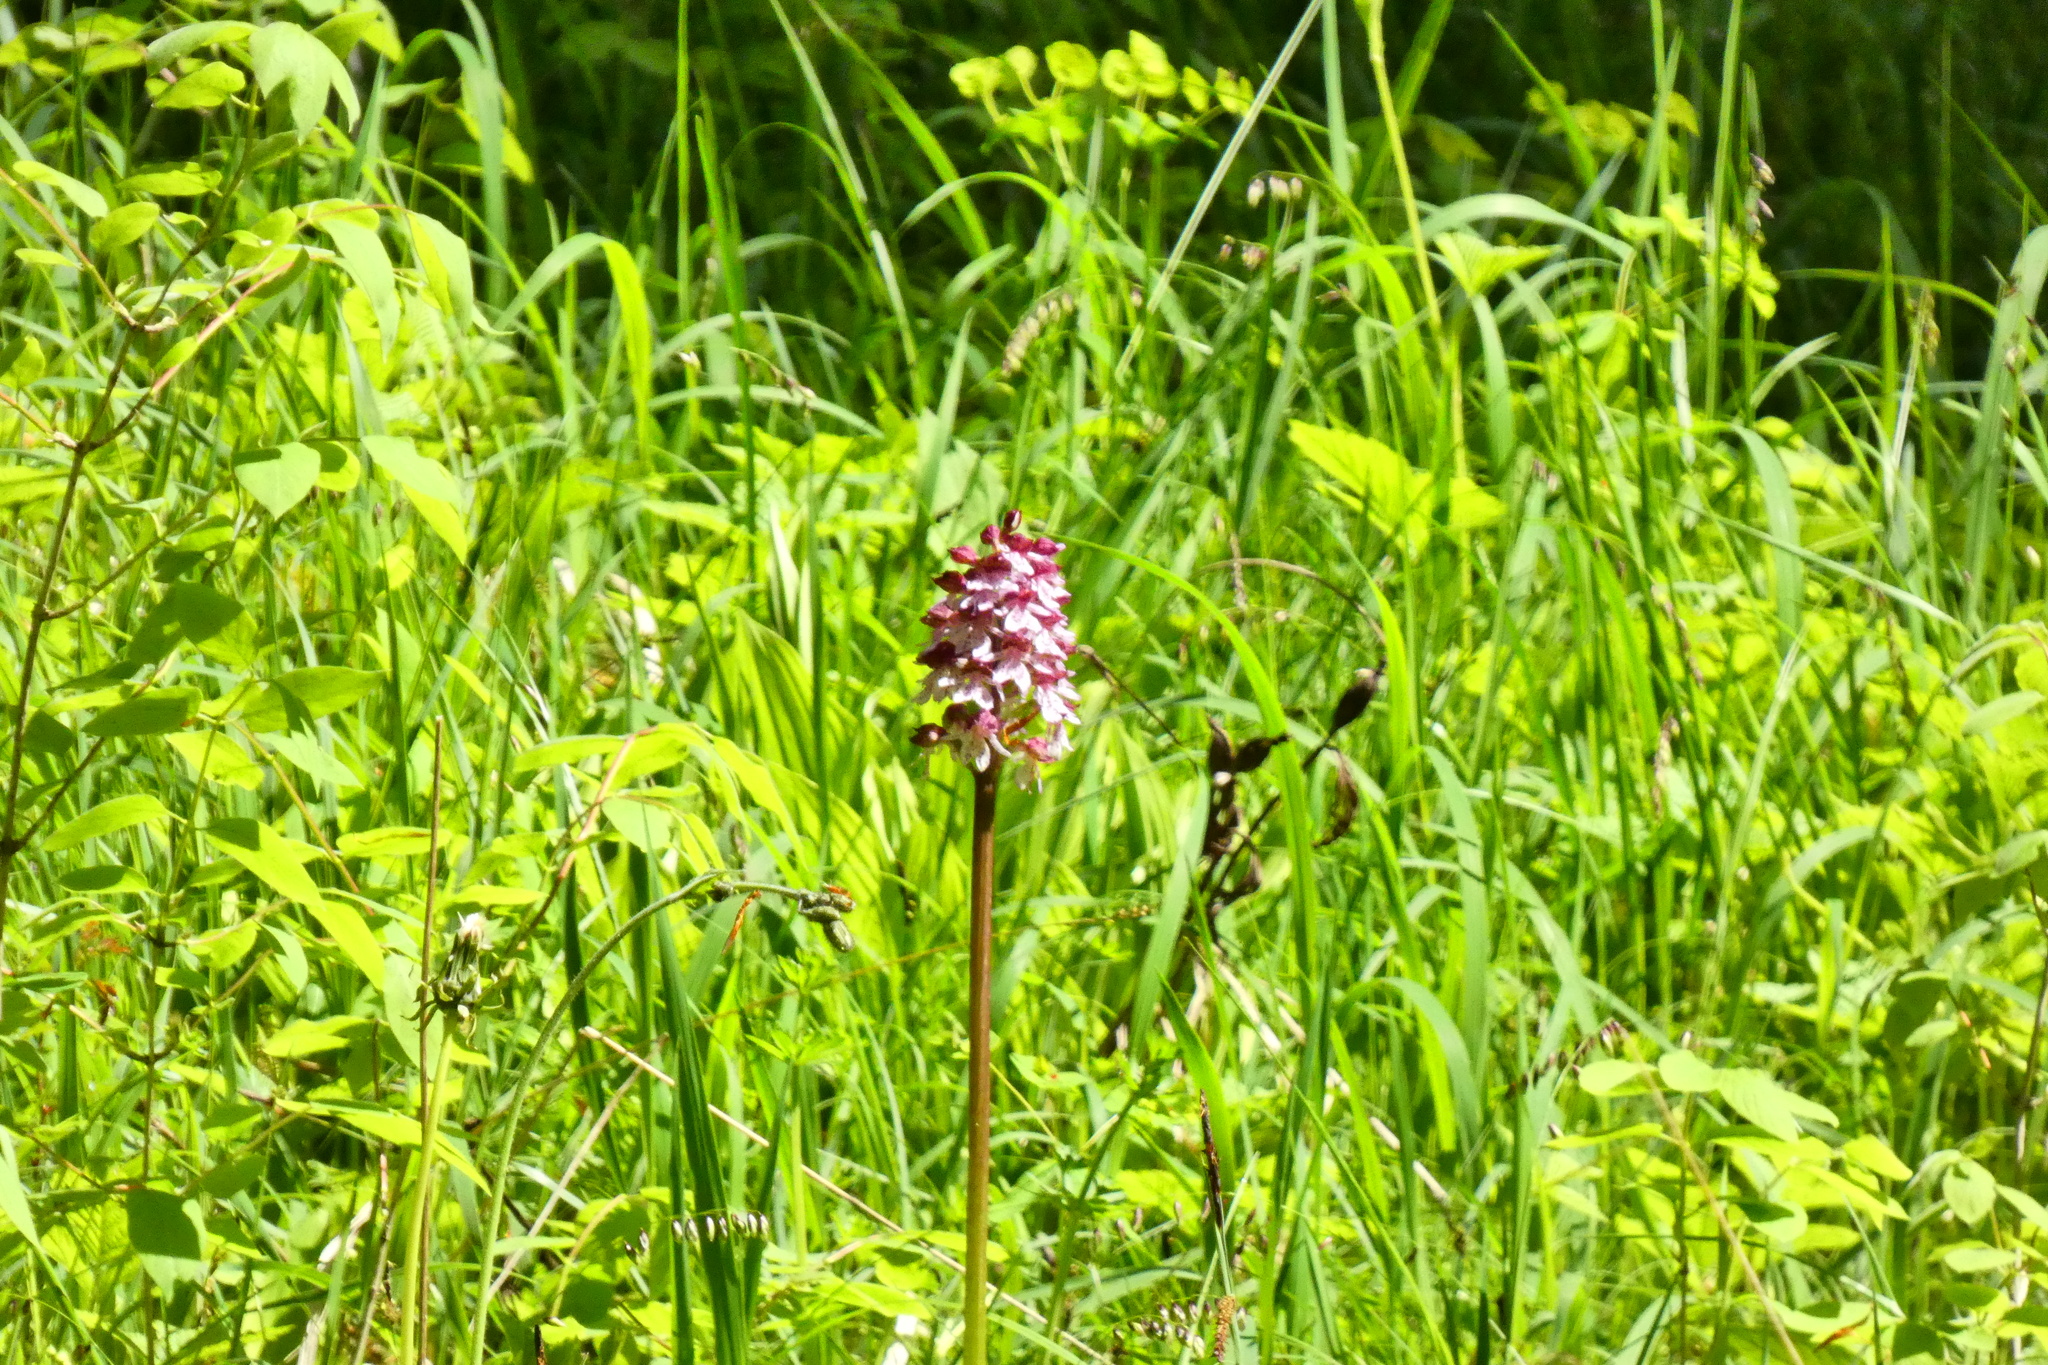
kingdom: Plantae
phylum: Tracheophyta
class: Liliopsida
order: Asparagales
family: Orchidaceae
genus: Orchis
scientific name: Orchis purpurea
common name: Lady orchid
